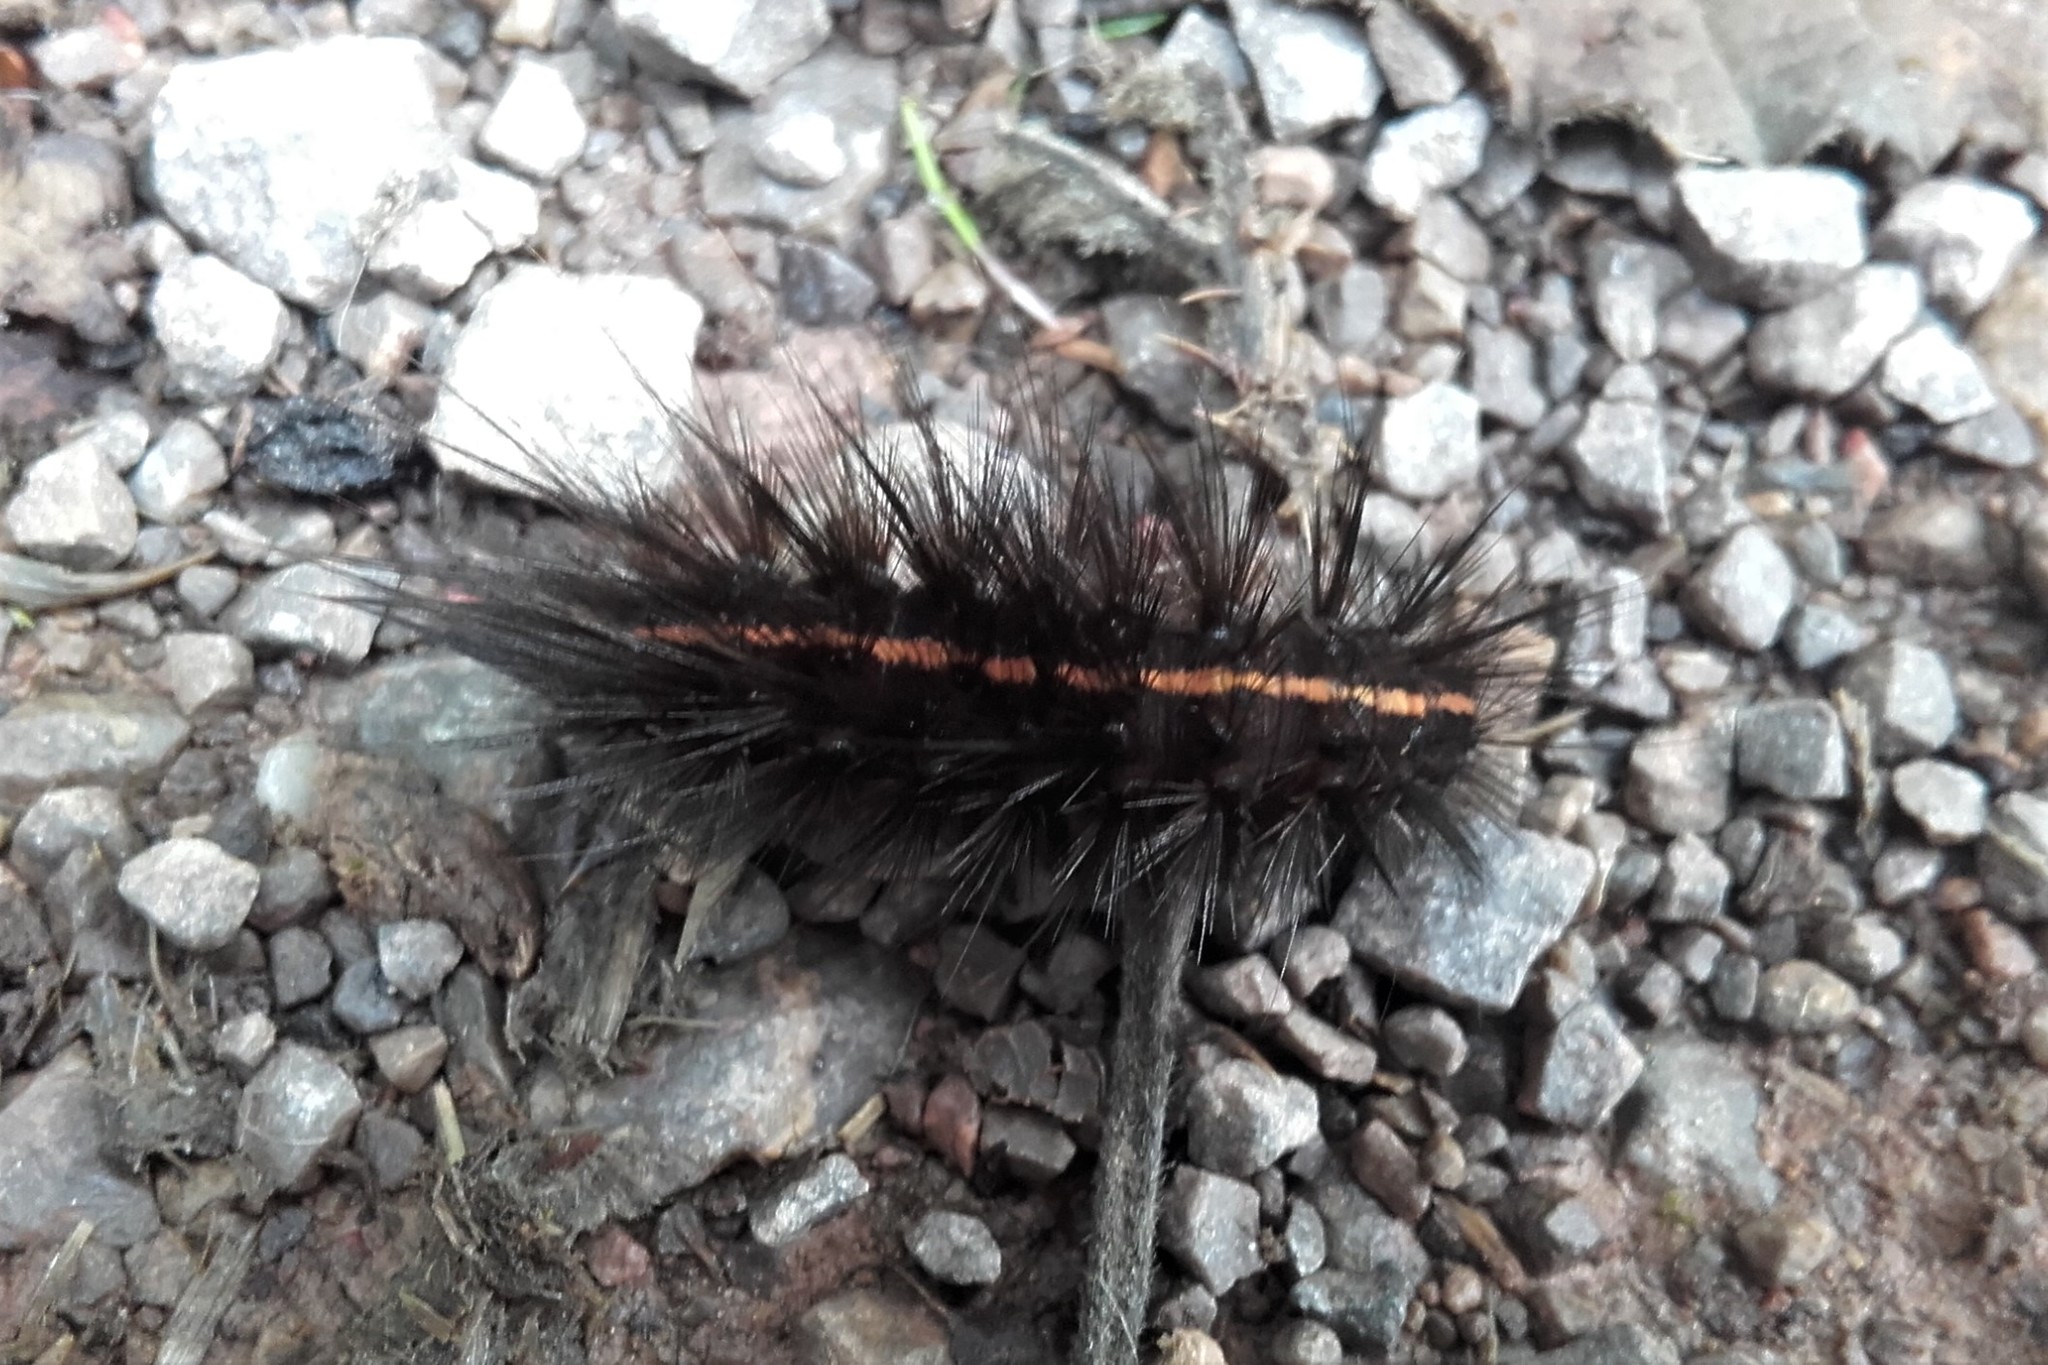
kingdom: Animalia
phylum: Arthropoda
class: Insecta
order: Lepidoptera
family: Erebidae
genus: Spilosoma
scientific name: Spilosoma lubricipeda
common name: White ermine
